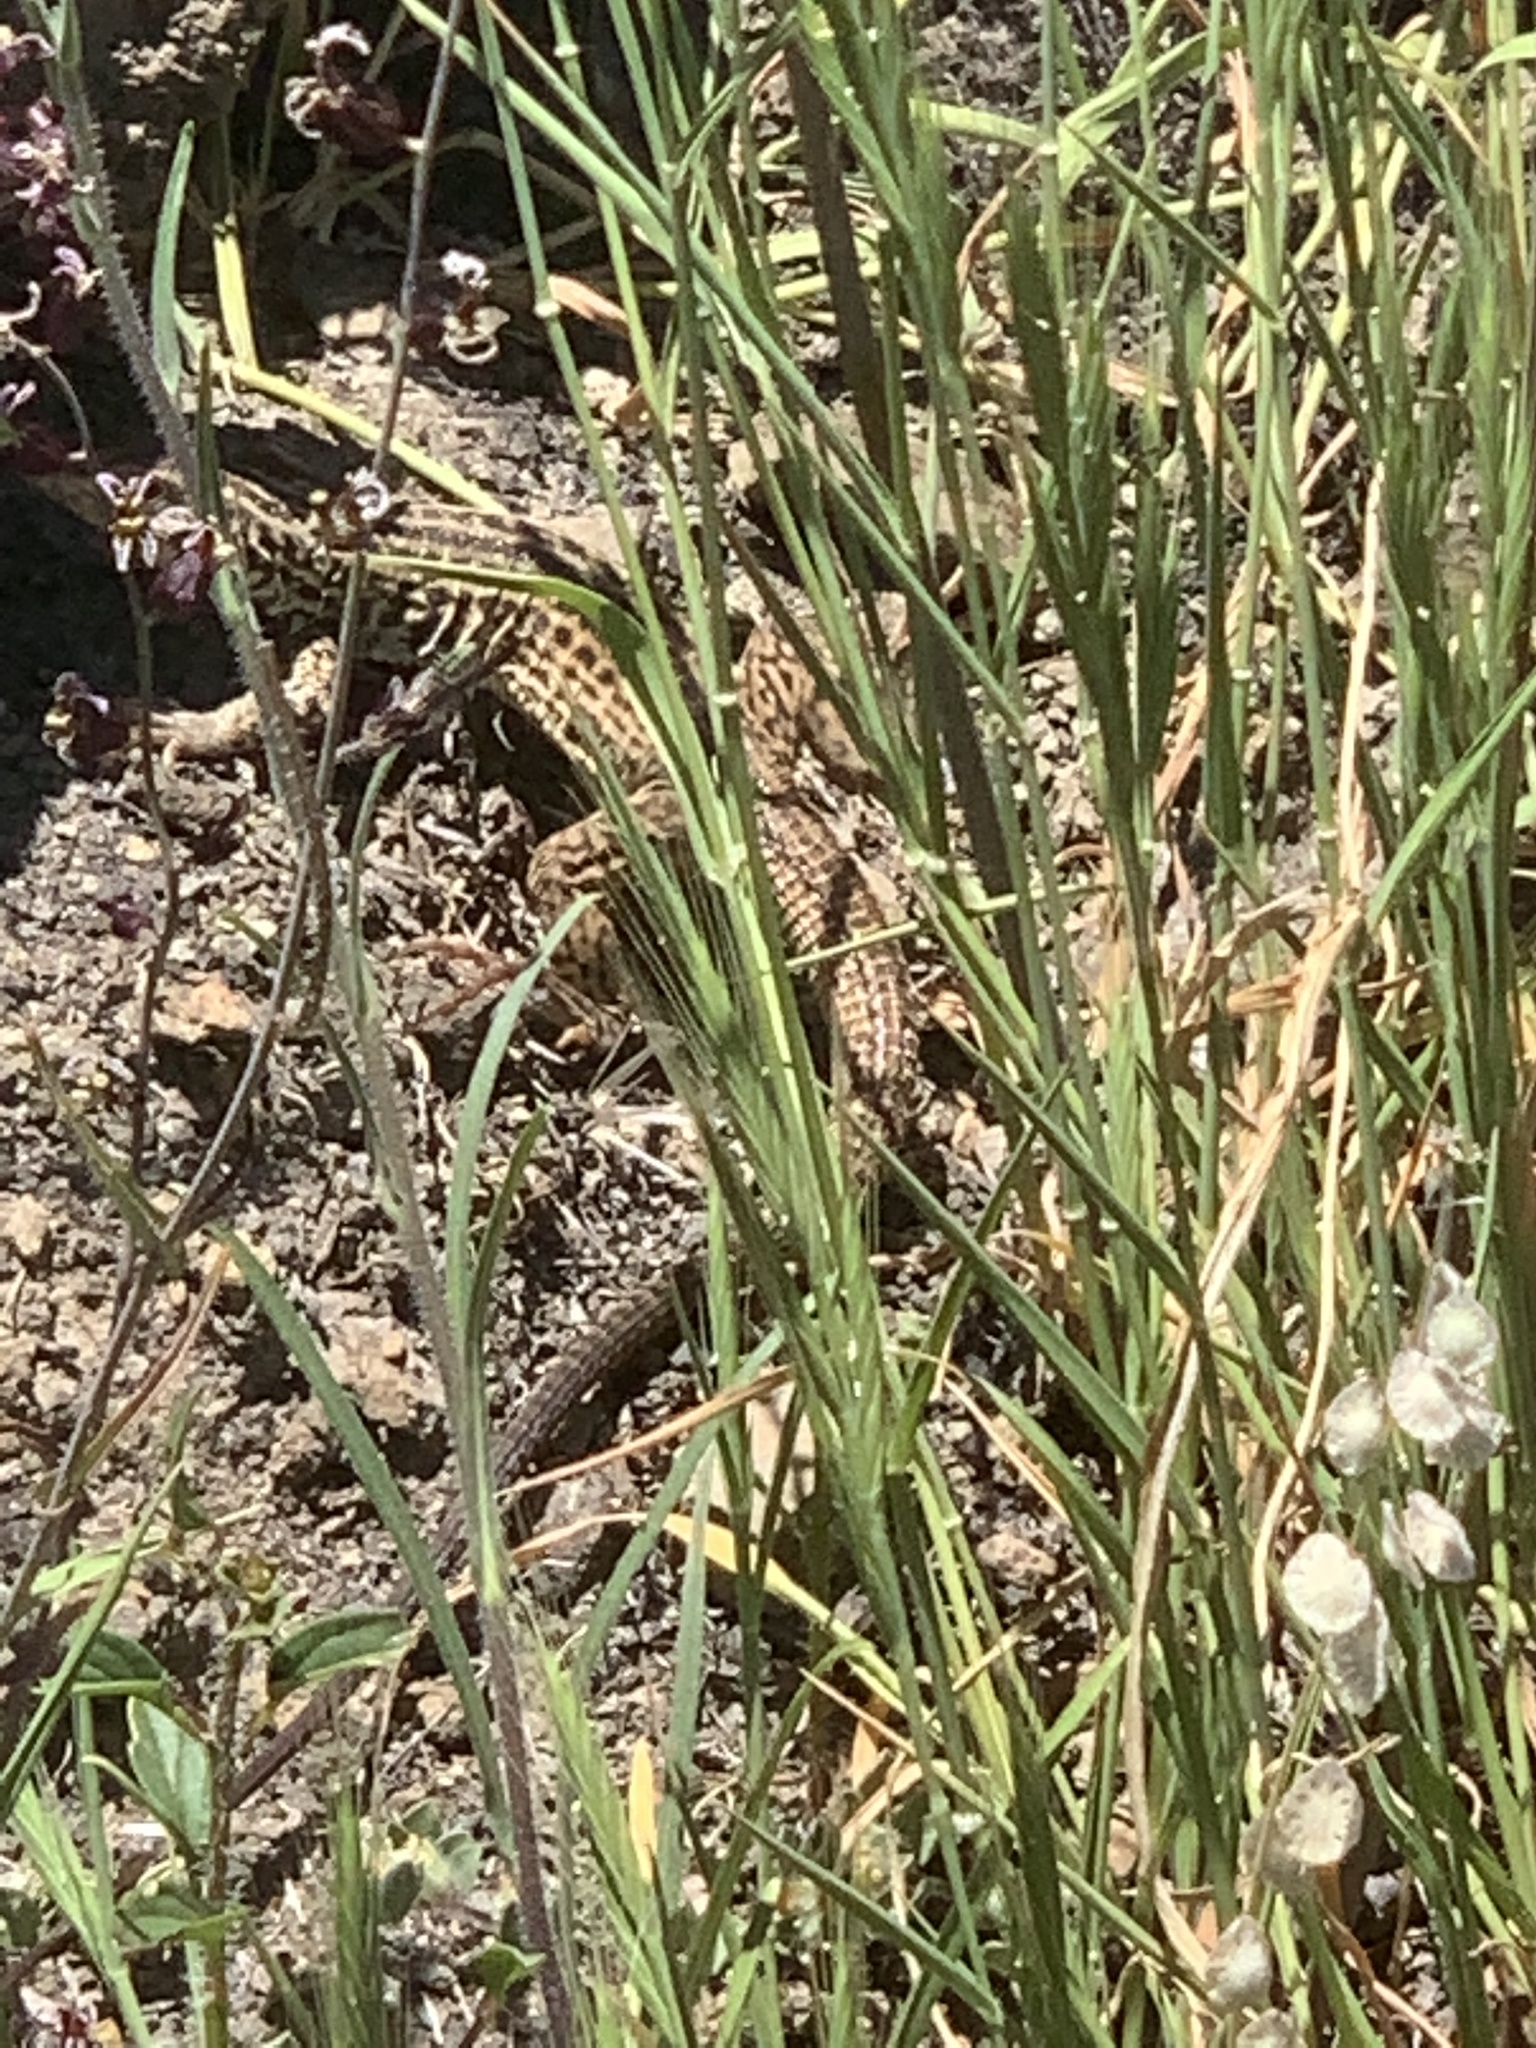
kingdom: Animalia
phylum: Chordata
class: Squamata
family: Teiidae
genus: Aspidoscelis
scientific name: Aspidoscelis tigris
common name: Tiger whiptail
